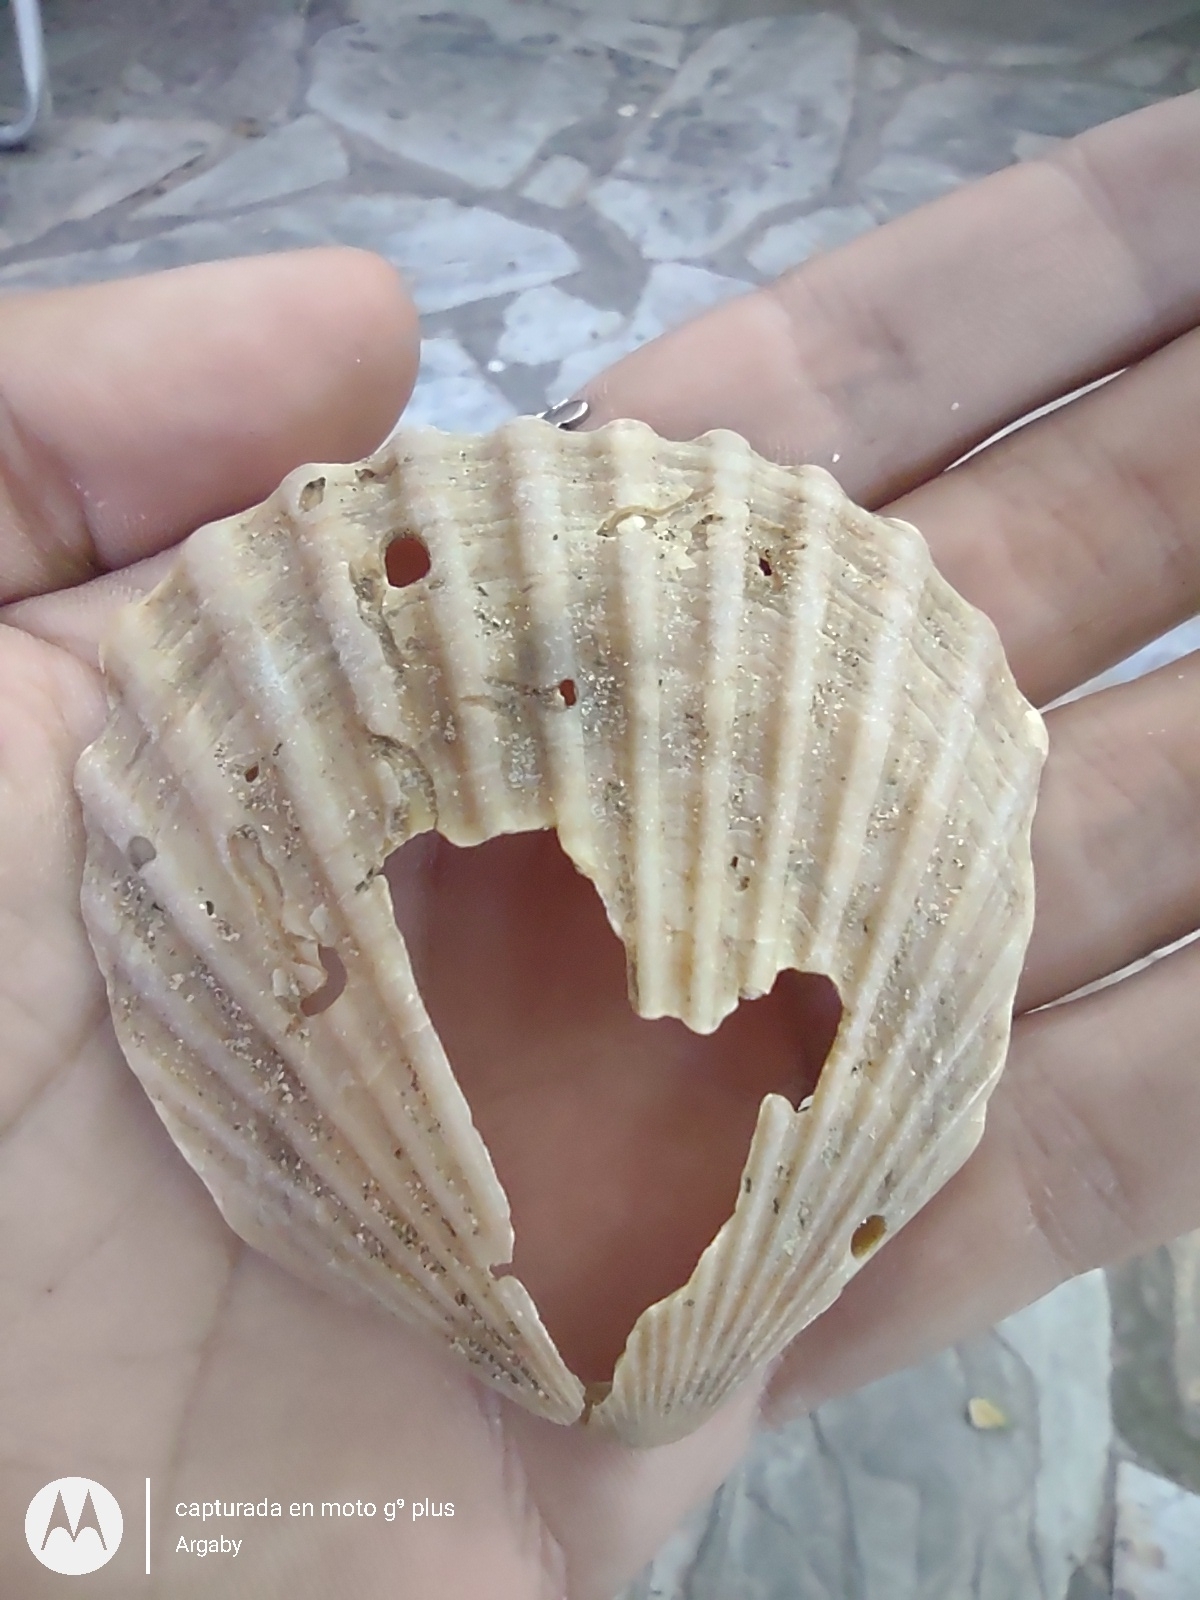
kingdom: Animalia
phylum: Mollusca
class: Bivalvia
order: Pectinida
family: Pectinidae
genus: Aequipecten
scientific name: Aequipecten tehuelchus
